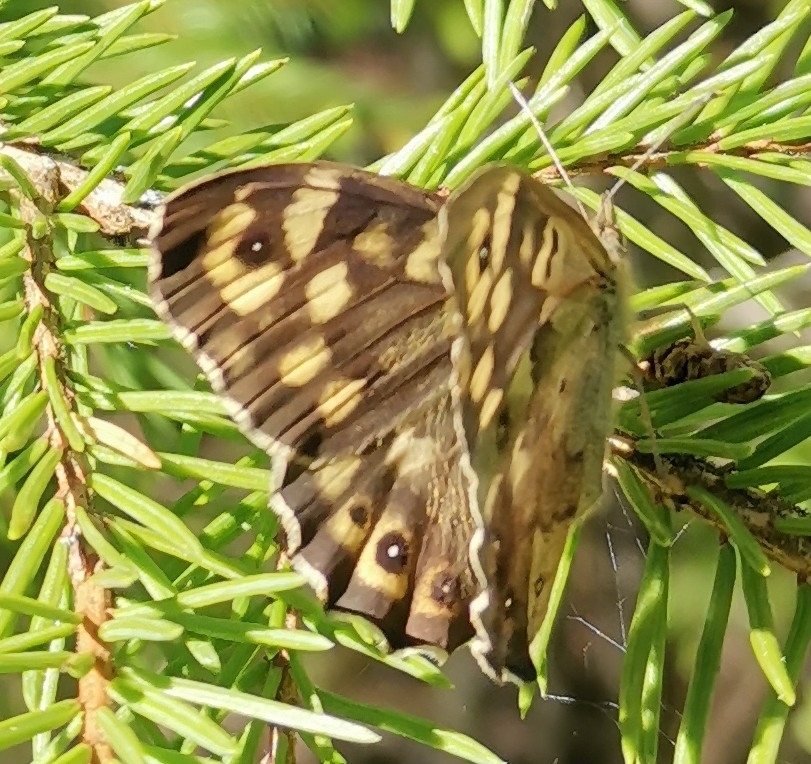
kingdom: Animalia
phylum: Arthropoda
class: Insecta
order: Lepidoptera
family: Nymphalidae
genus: Pararge
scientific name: Pararge aegeria
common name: Speckled wood
